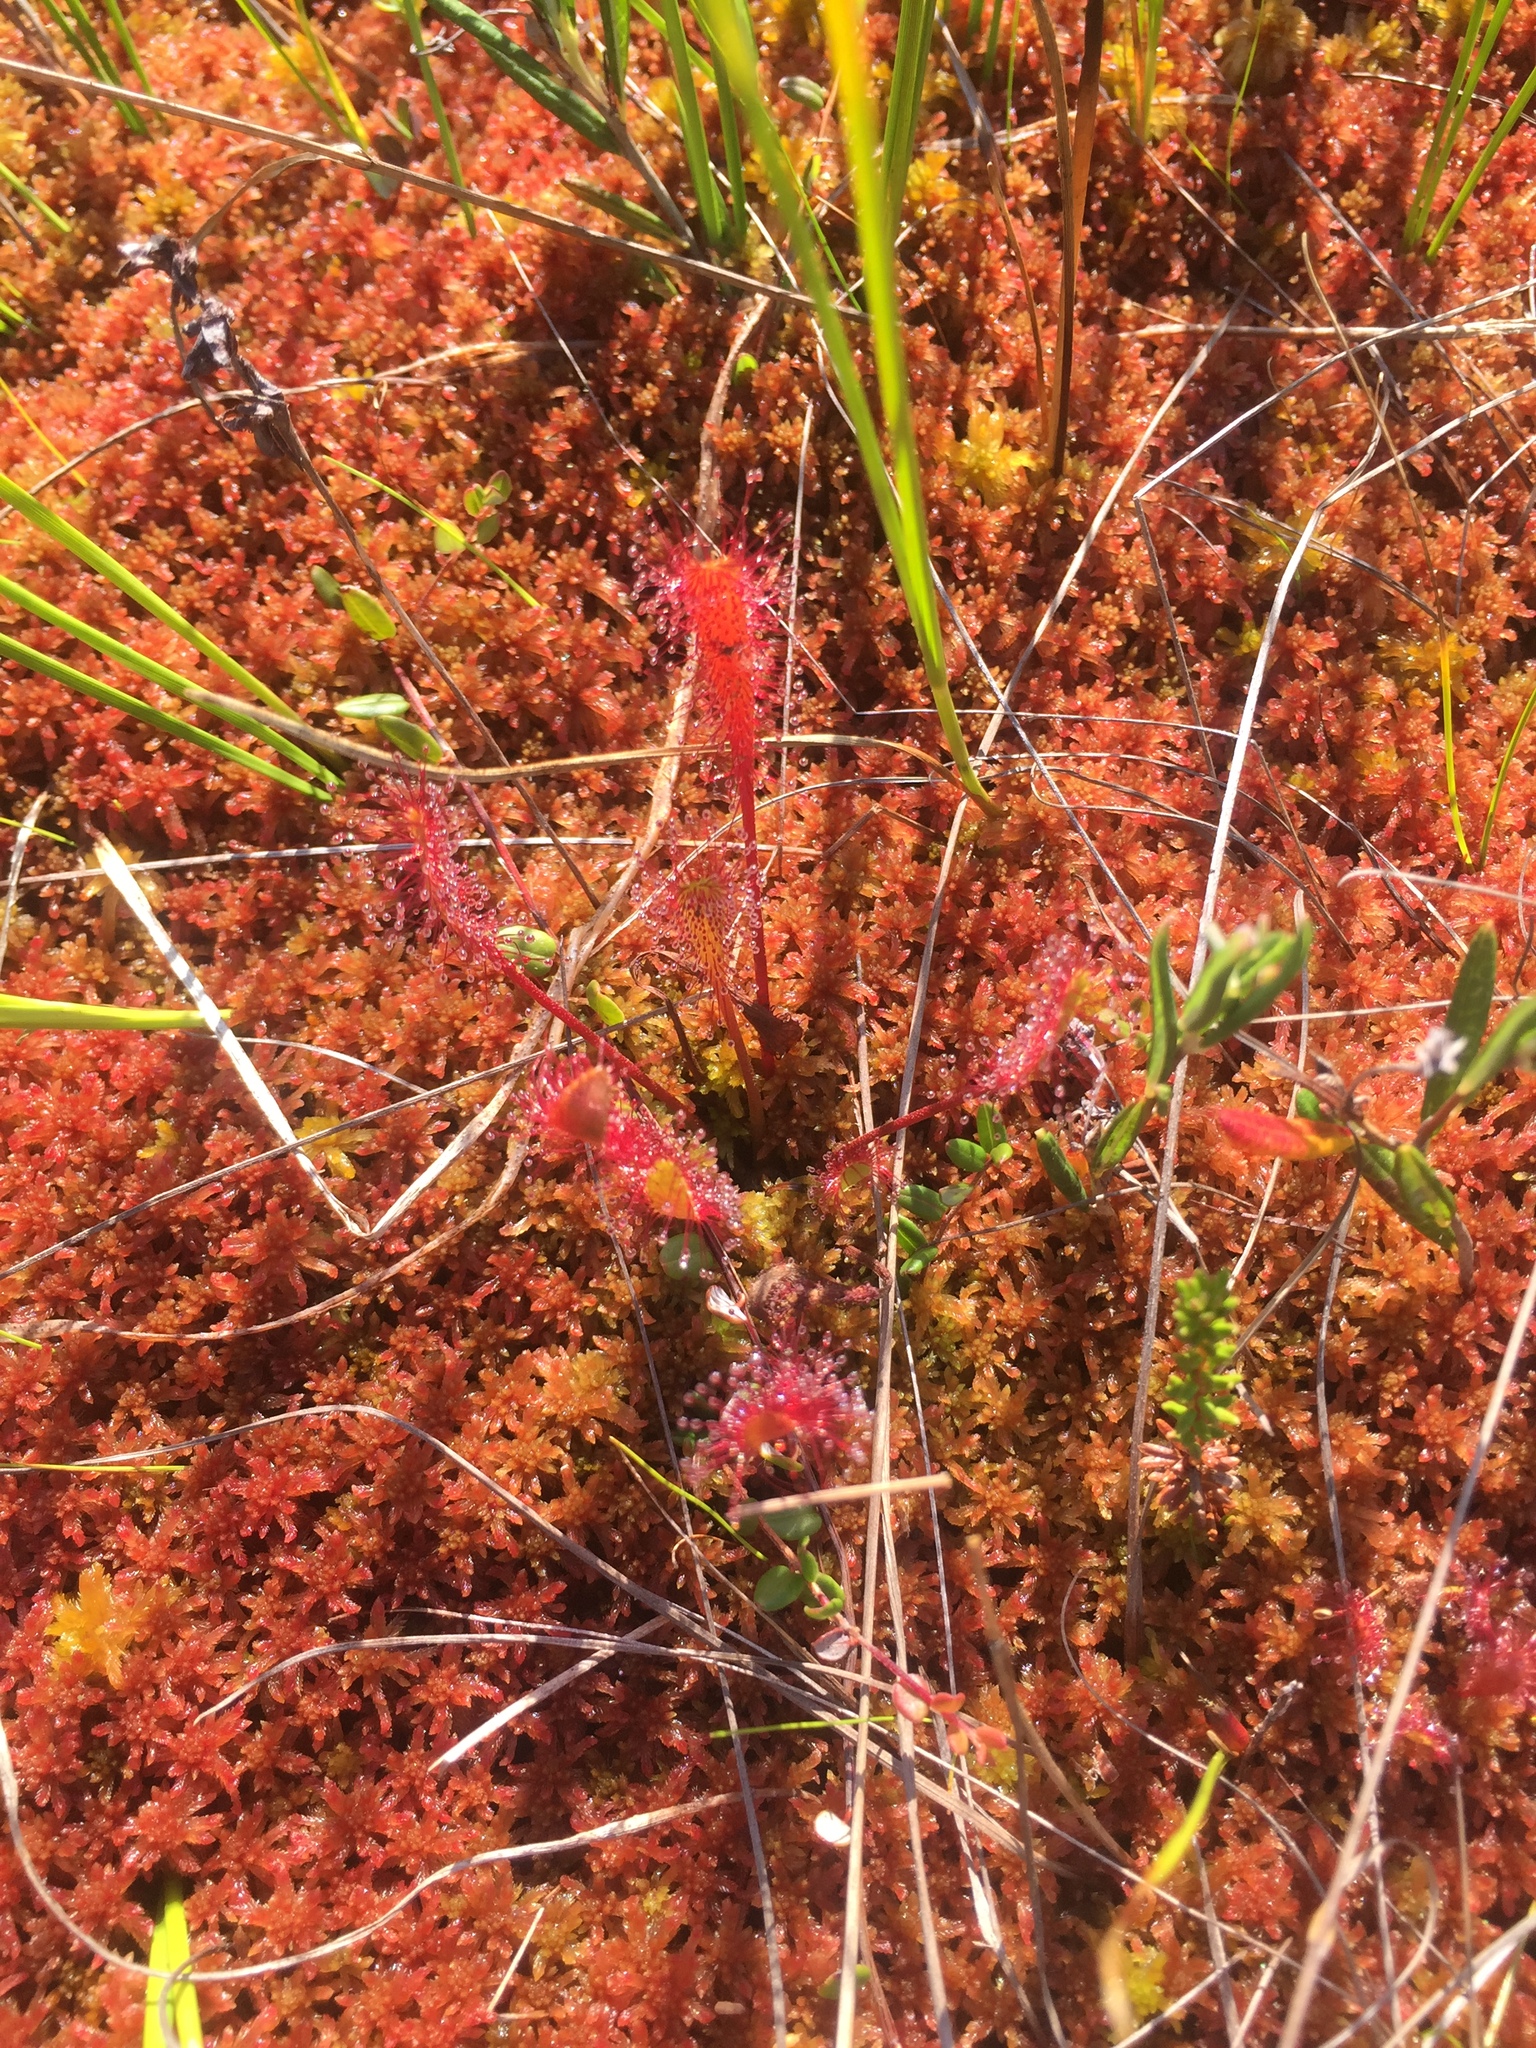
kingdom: Plantae
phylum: Tracheophyta
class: Magnoliopsida
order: Caryophyllales
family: Droseraceae
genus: Drosera
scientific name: Drosera obovata
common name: Ivan's paddle
